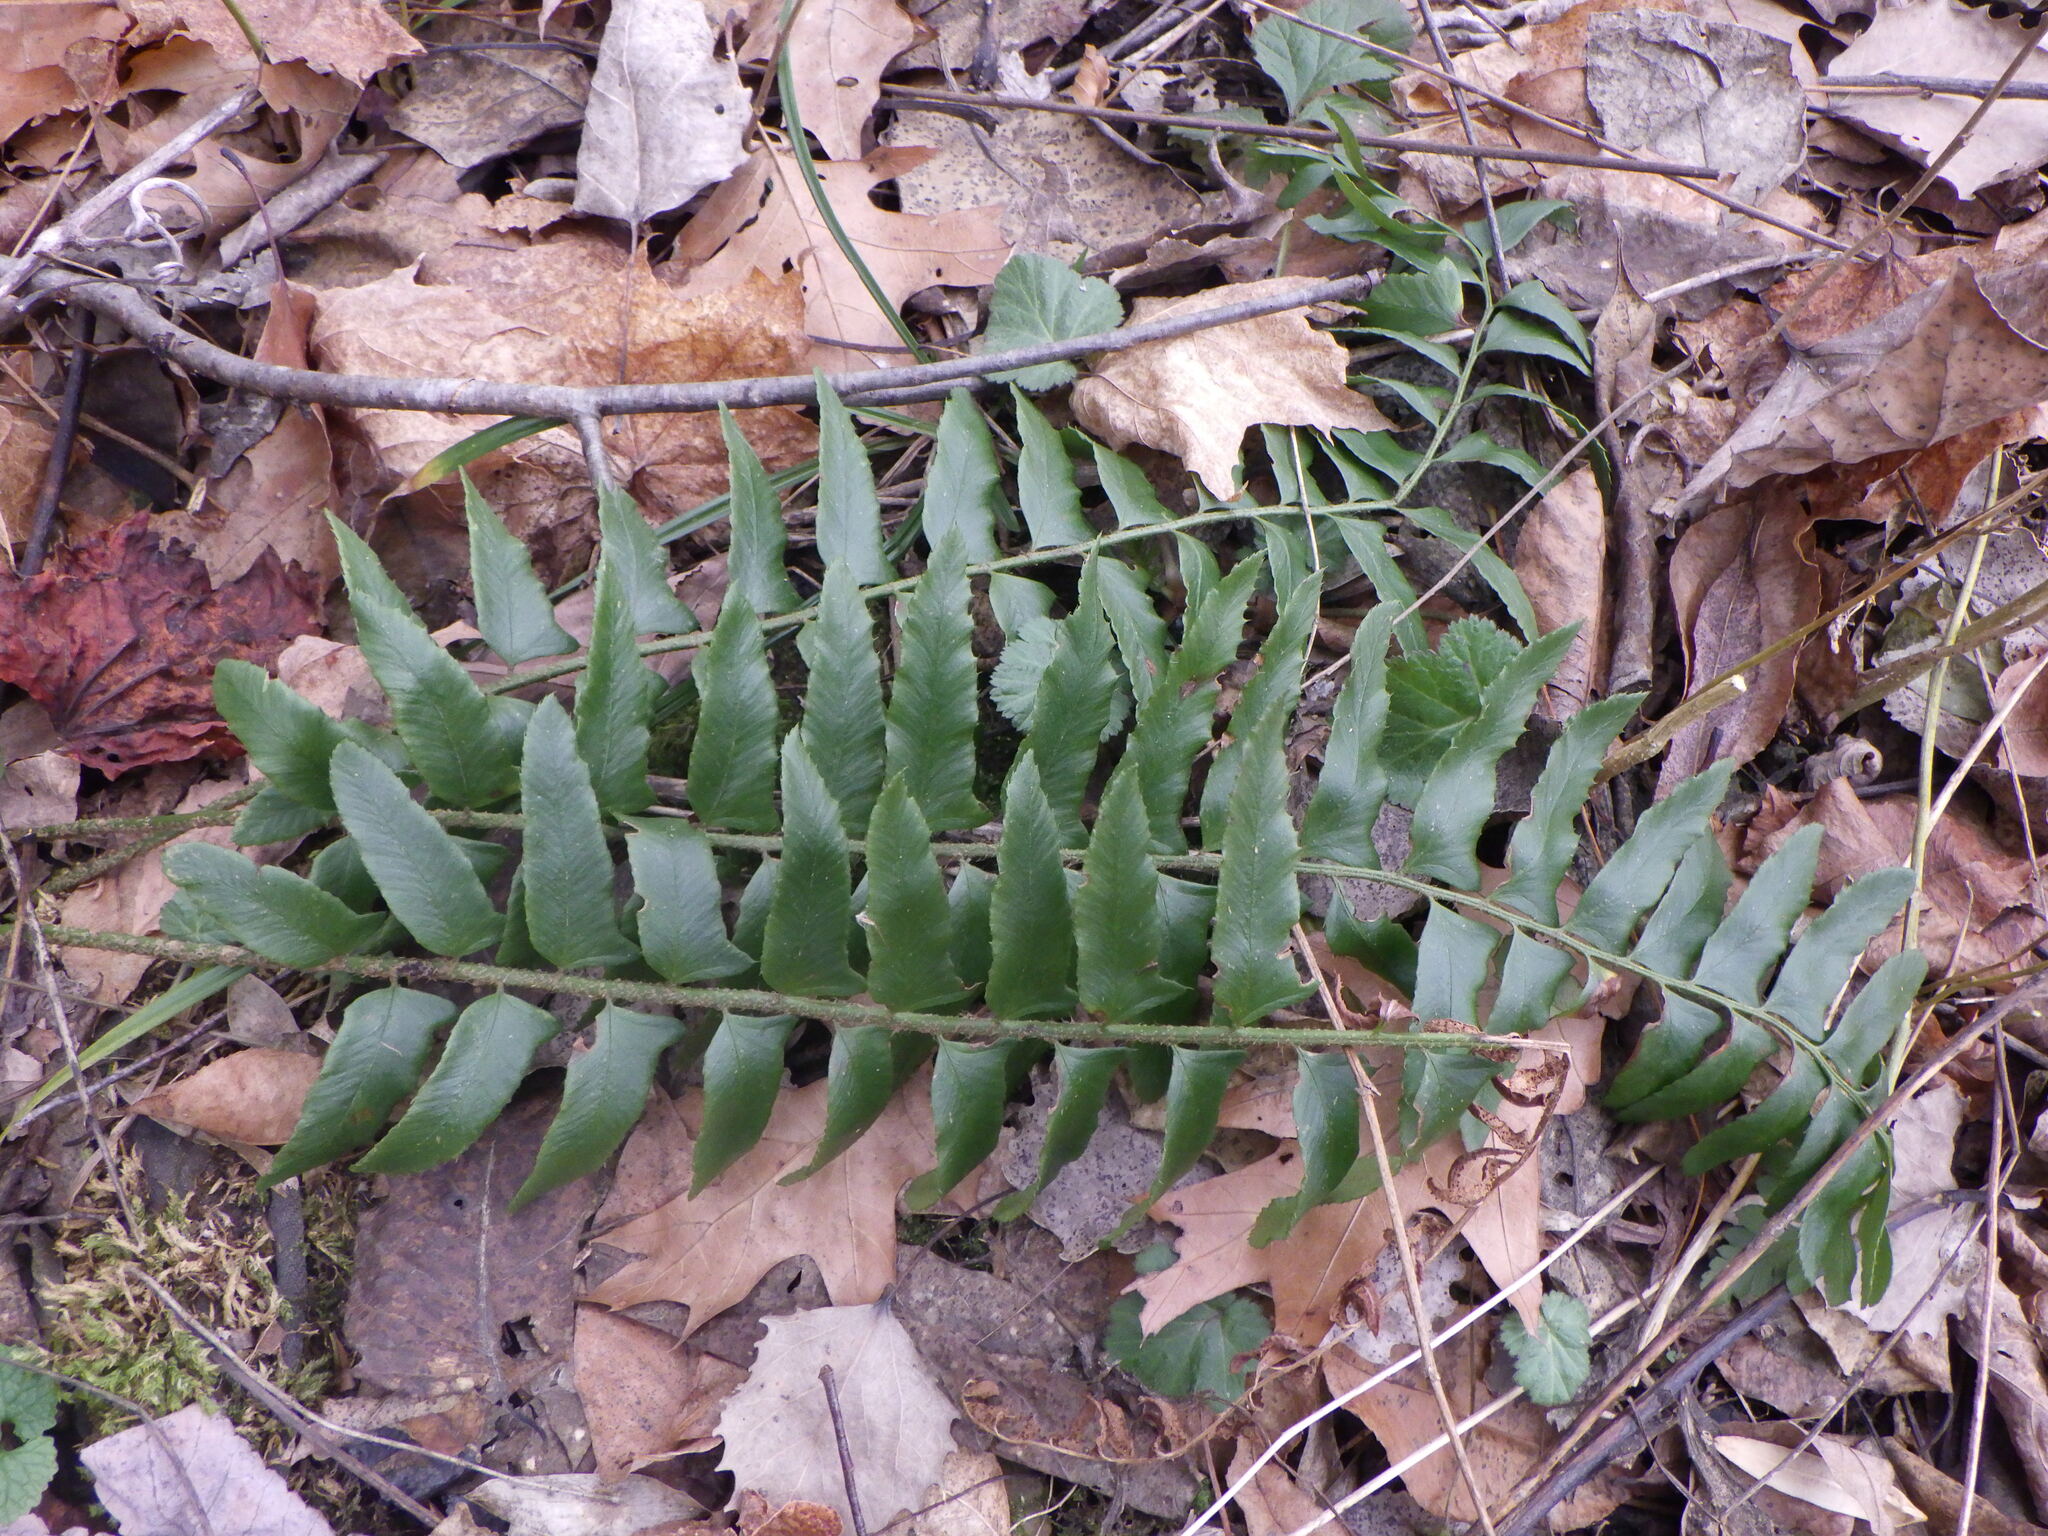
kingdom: Plantae
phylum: Tracheophyta
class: Polypodiopsida
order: Polypodiales
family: Dryopteridaceae
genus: Polystichum
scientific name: Polystichum acrostichoides
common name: Christmas fern
